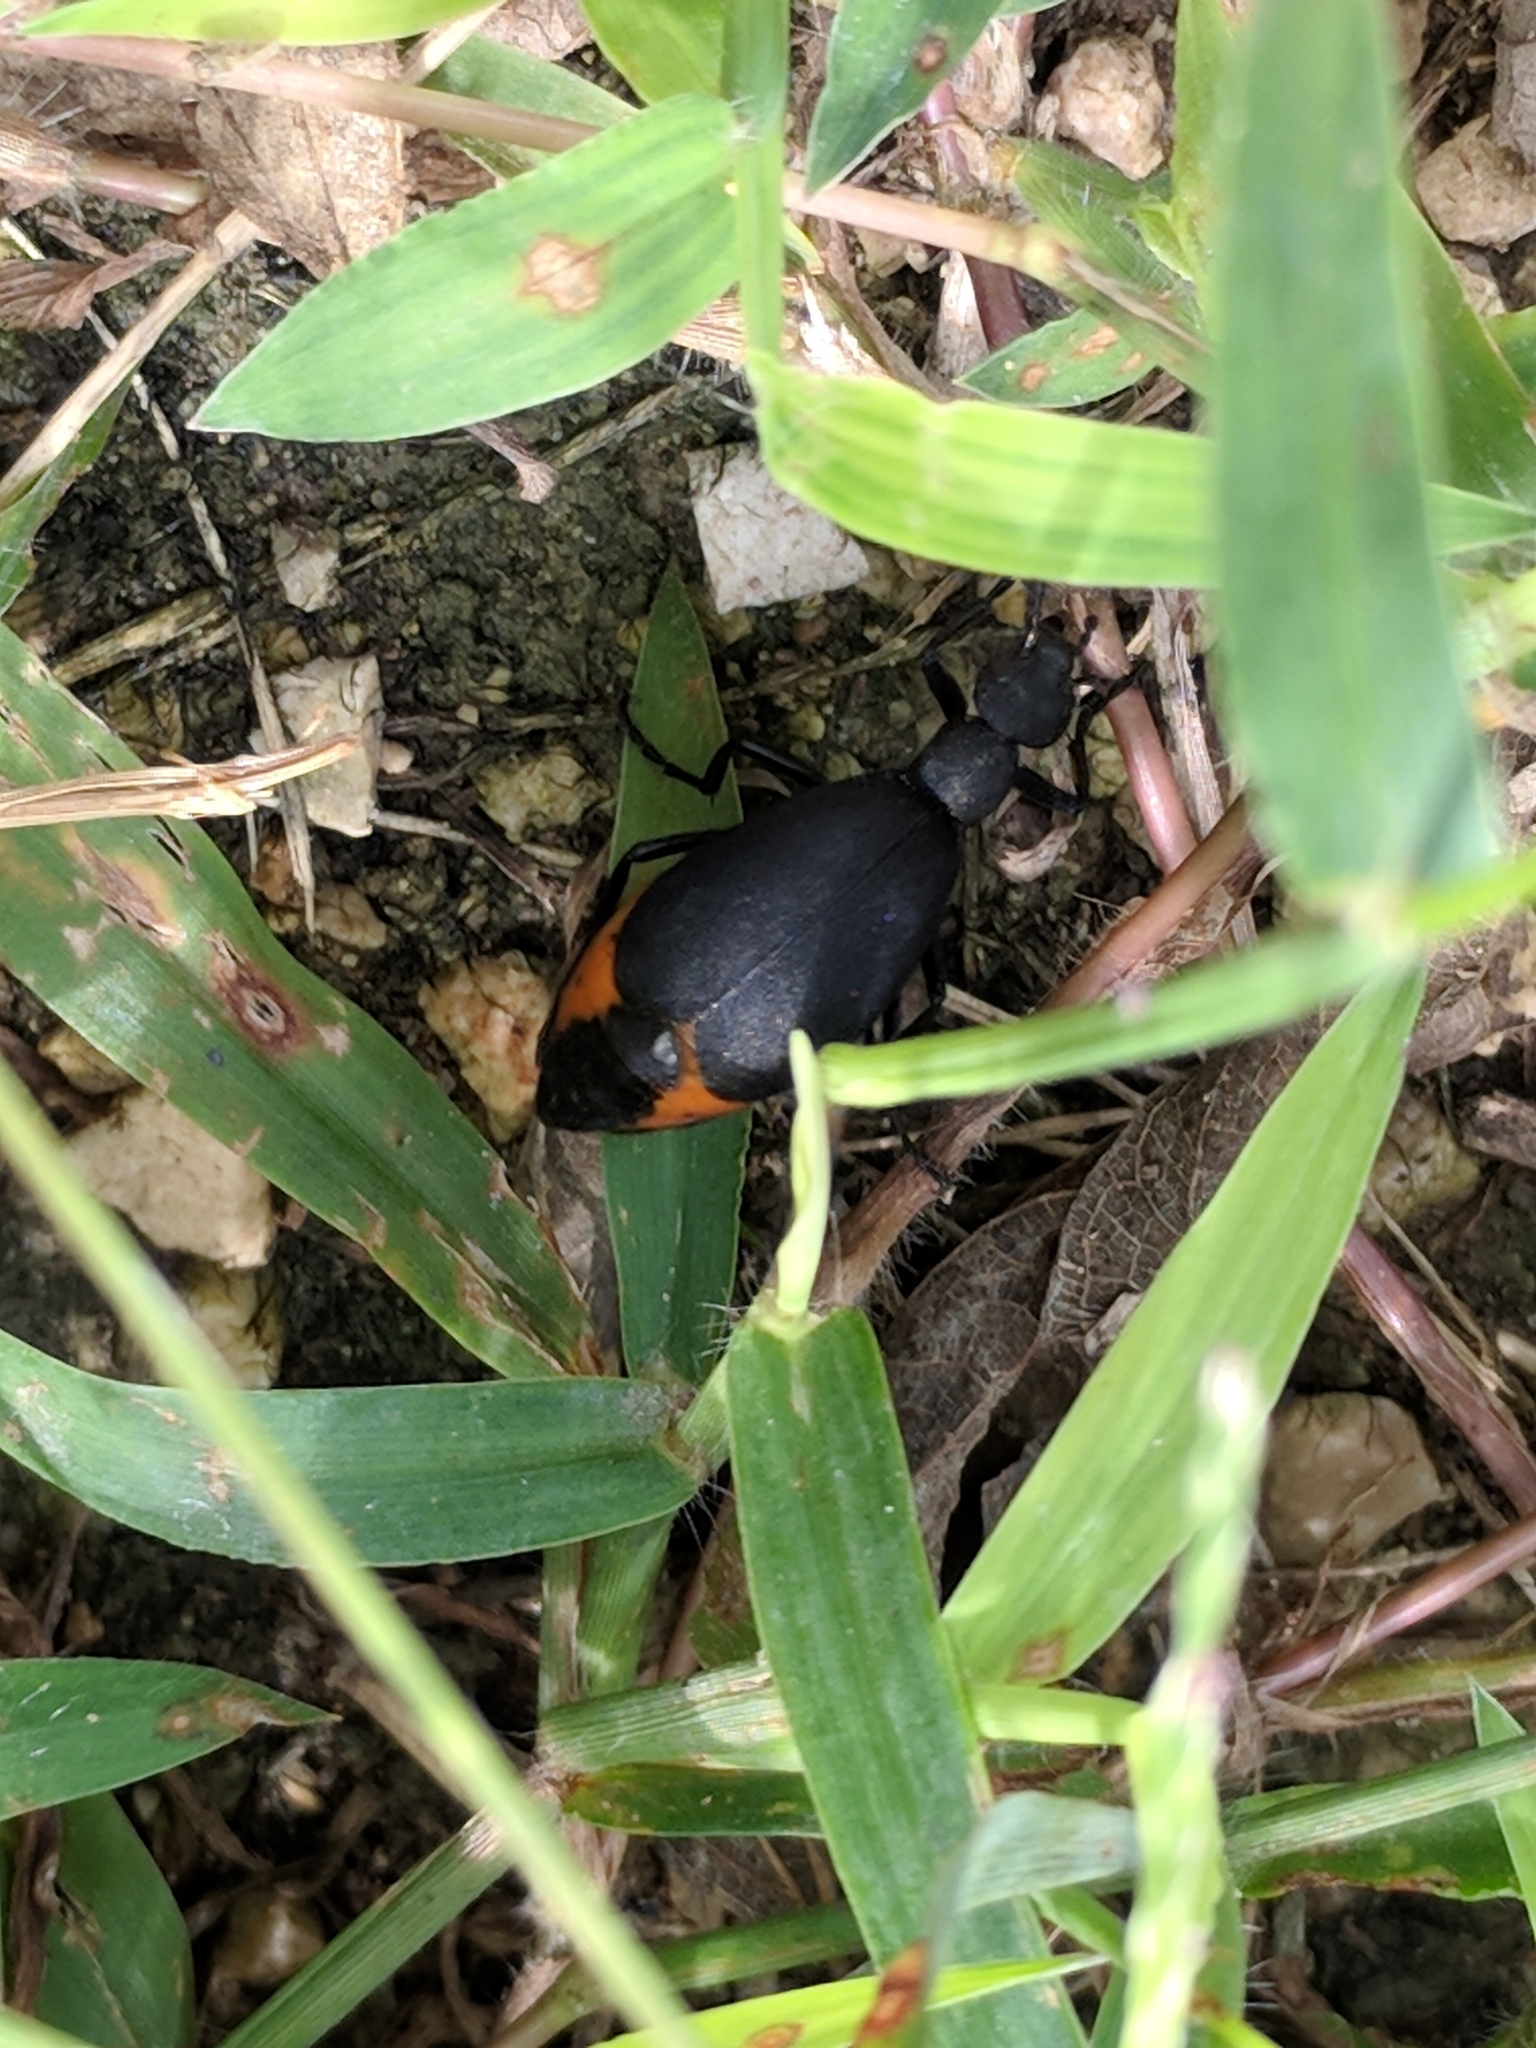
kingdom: Animalia
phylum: Arthropoda
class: Insecta
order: Coleoptera
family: Meloidae
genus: Epicauta
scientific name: Epicauta conferta
